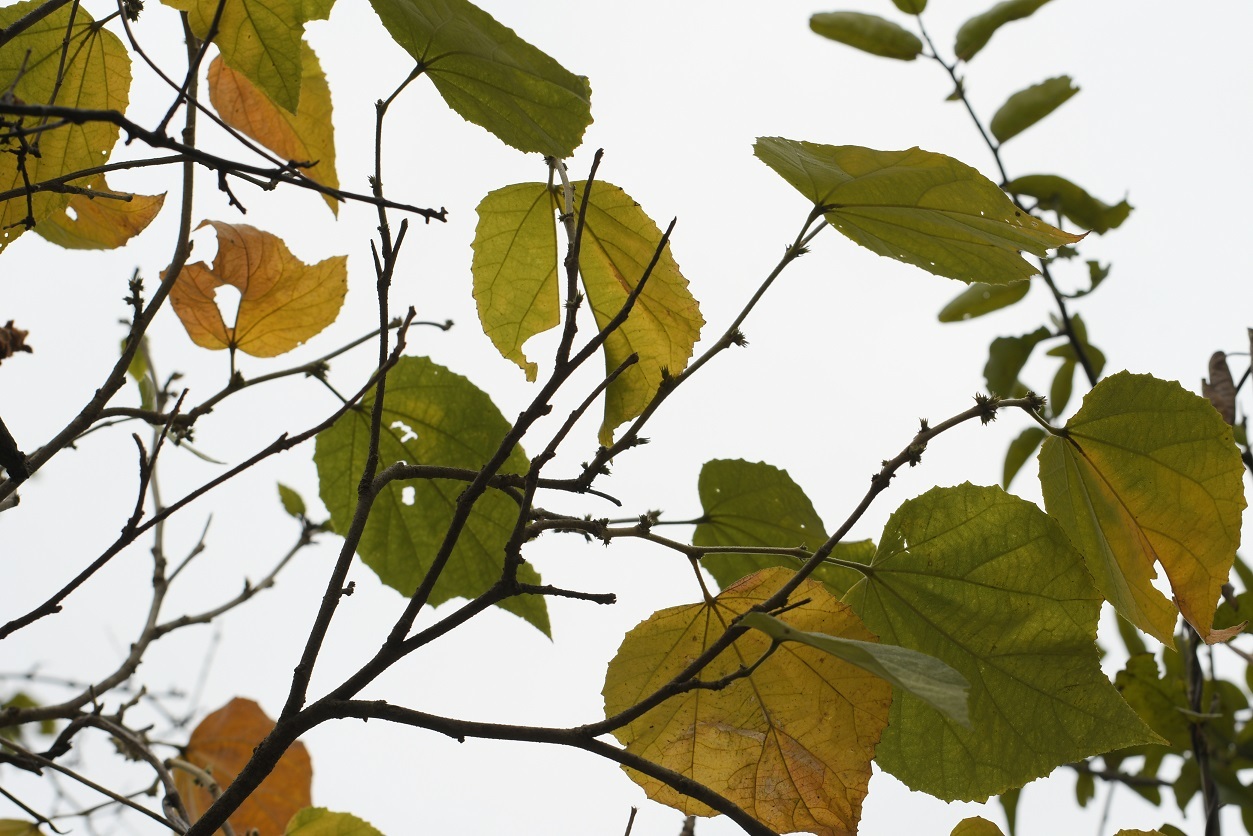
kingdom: Plantae
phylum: Tracheophyta
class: Magnoliopsida
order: Malvales
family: Malvaceae
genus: Robinsonella
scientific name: Robinsonella pilosissima
